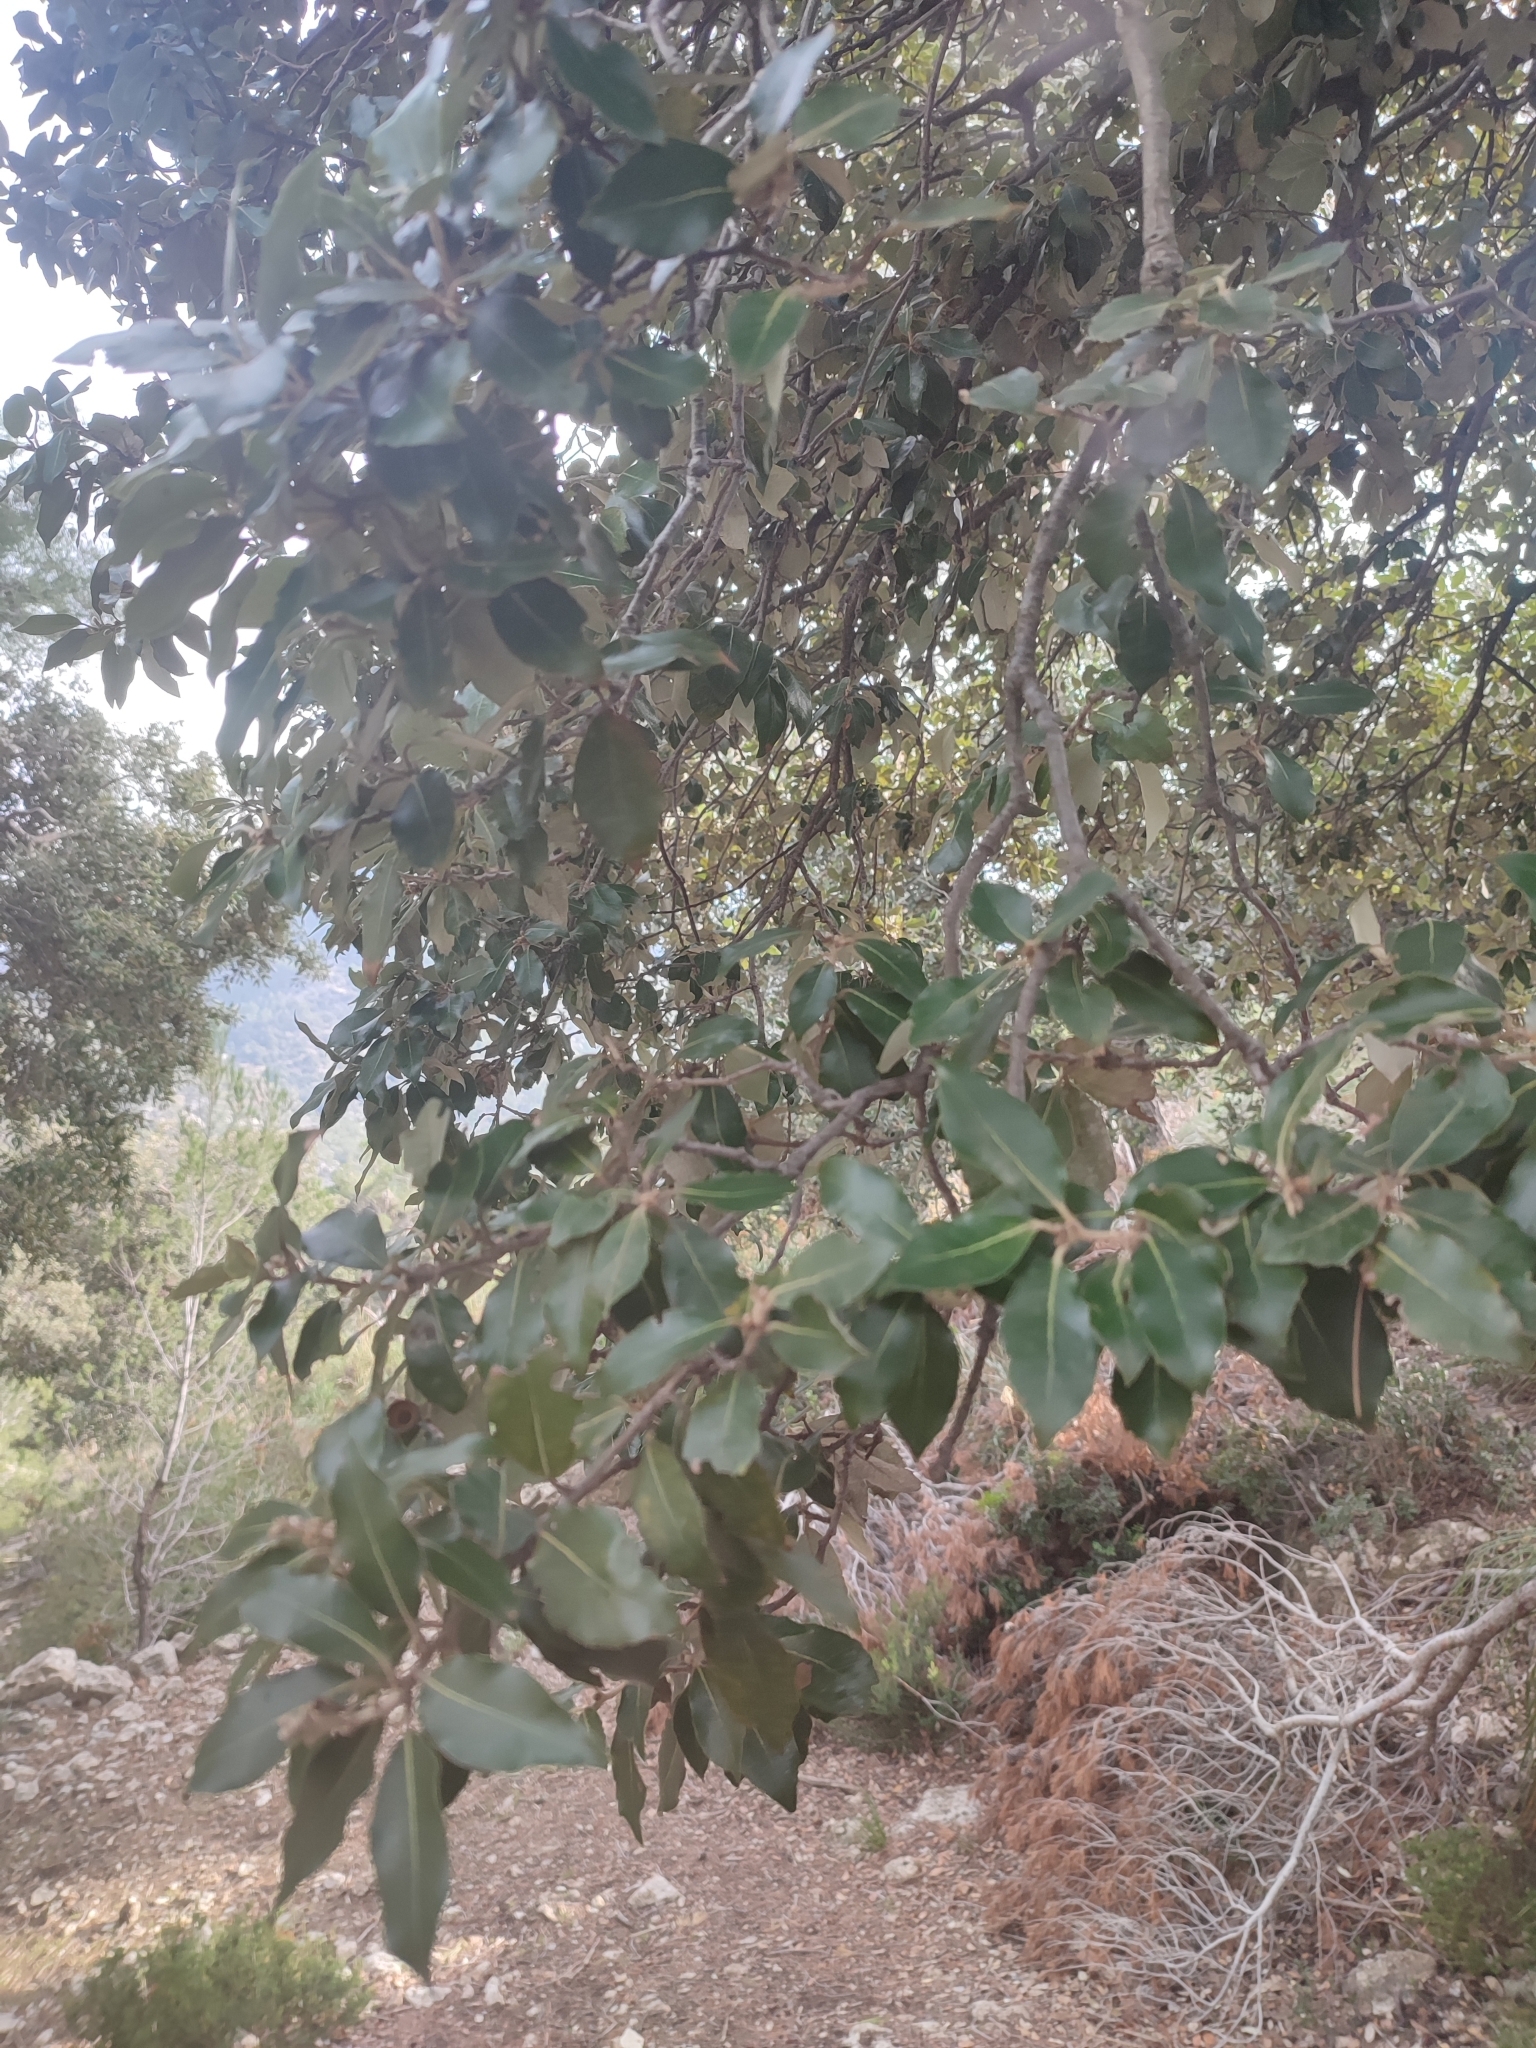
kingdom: Plantae
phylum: Tracheophyta
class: Magnoliopsida
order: Fagales
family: Fagaceae
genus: Quercus
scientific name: Quercus ilex
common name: Evergreen oak
